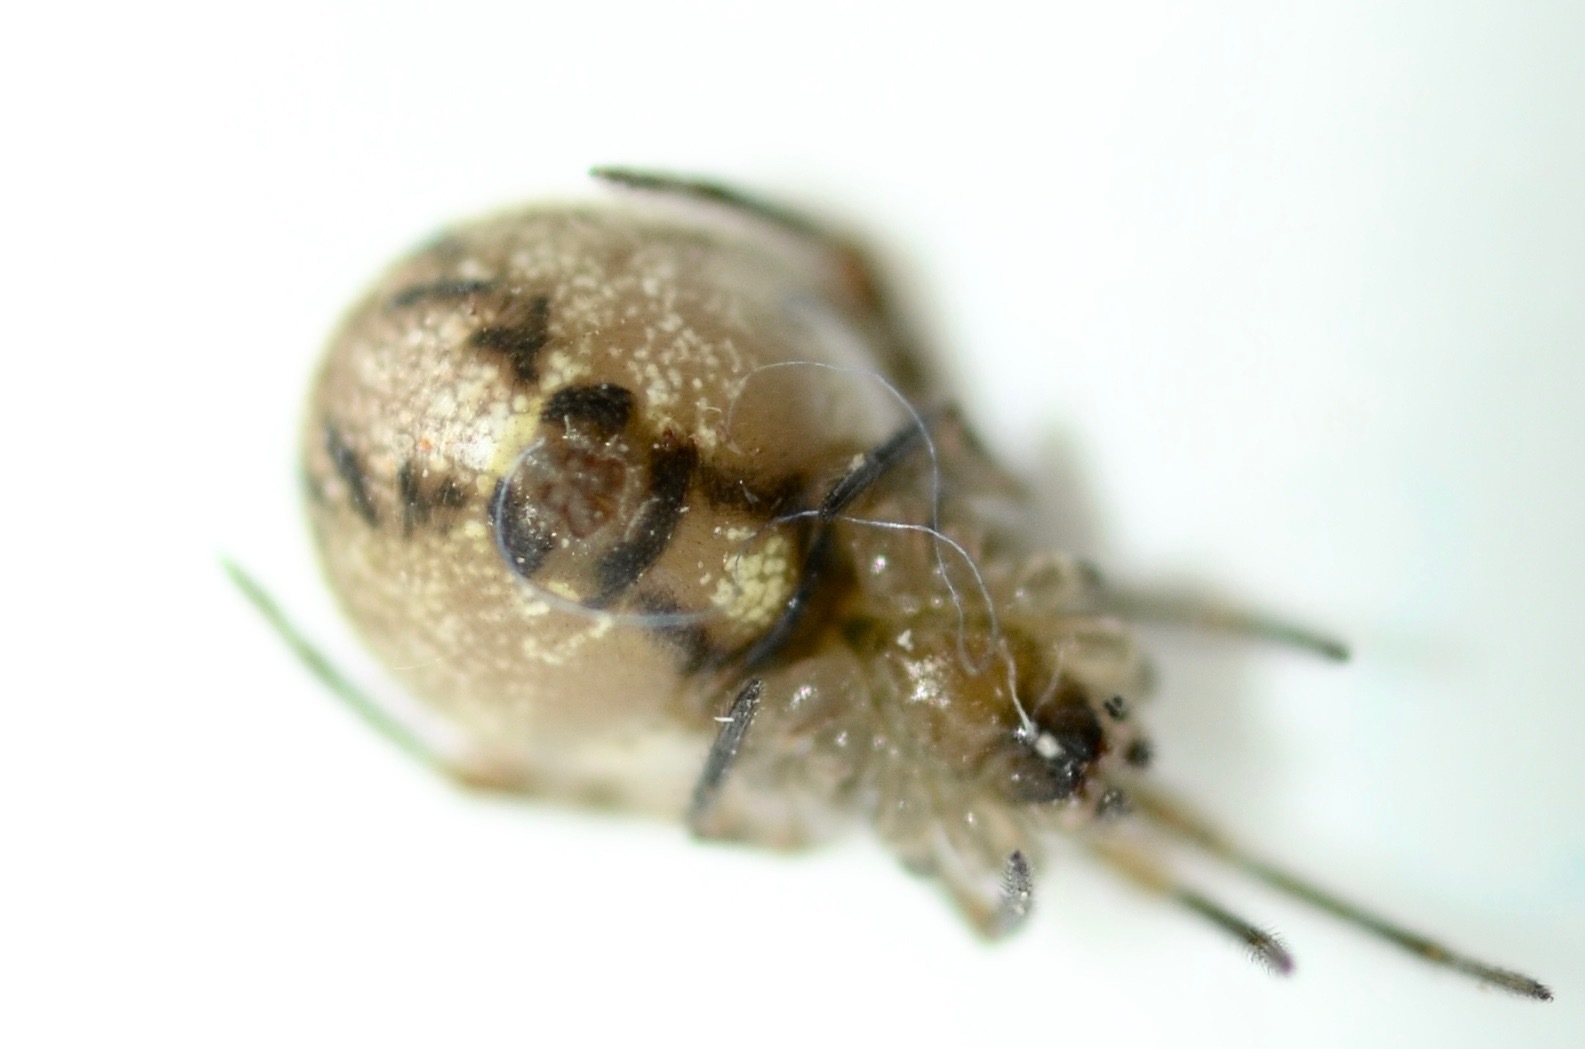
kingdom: Animalia
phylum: Arthropoda
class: Arachnida
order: Araneae
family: Theridiidae
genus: Cryptachaea
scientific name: Cryptachaea veruculata
